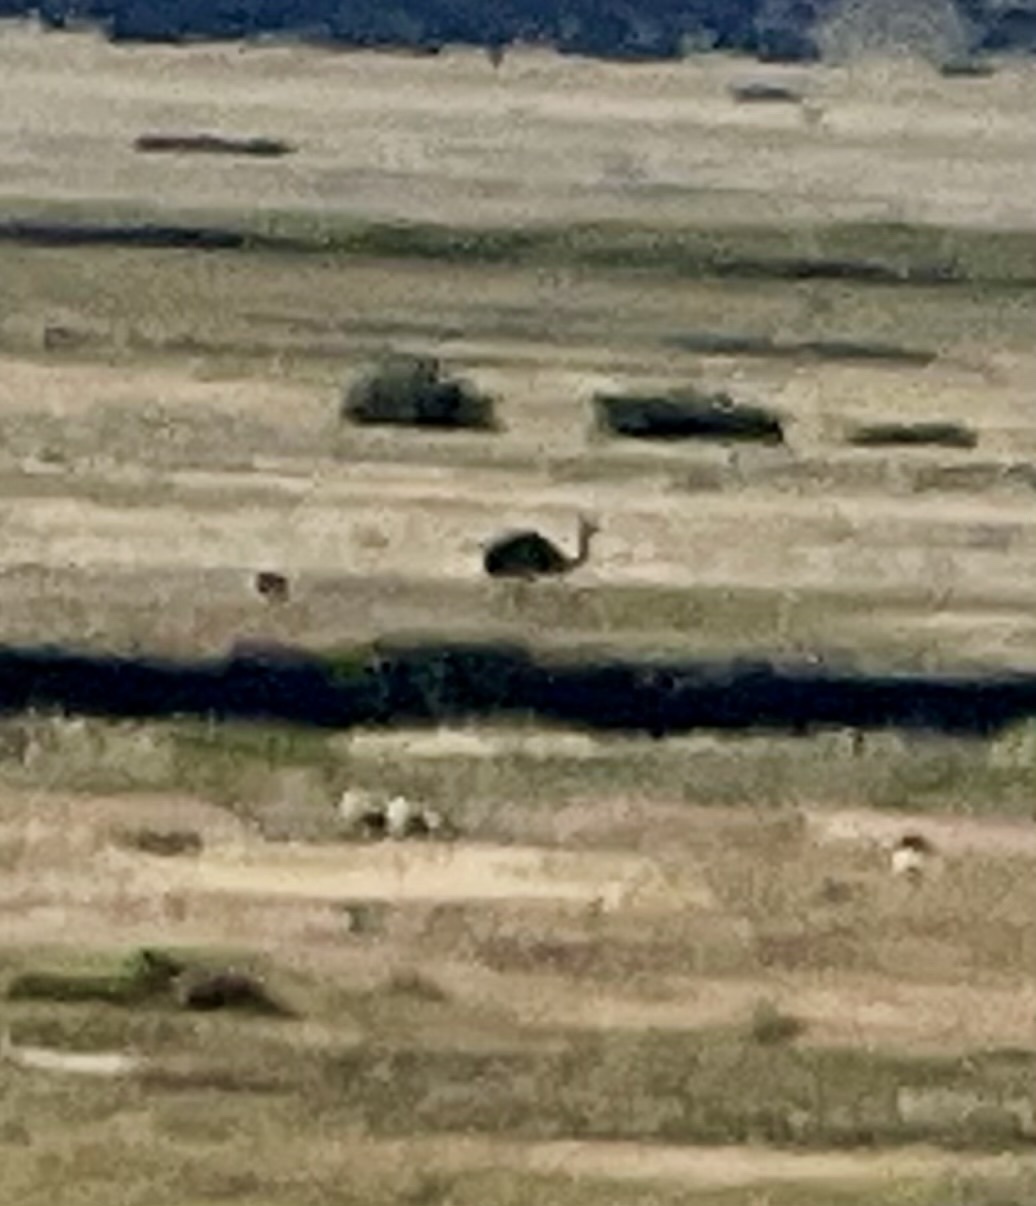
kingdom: Animalia
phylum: Chordata
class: Aves
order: Rheiformes
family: Rheidae
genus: Rhea
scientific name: Rhea pennata
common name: Lesser rhea
